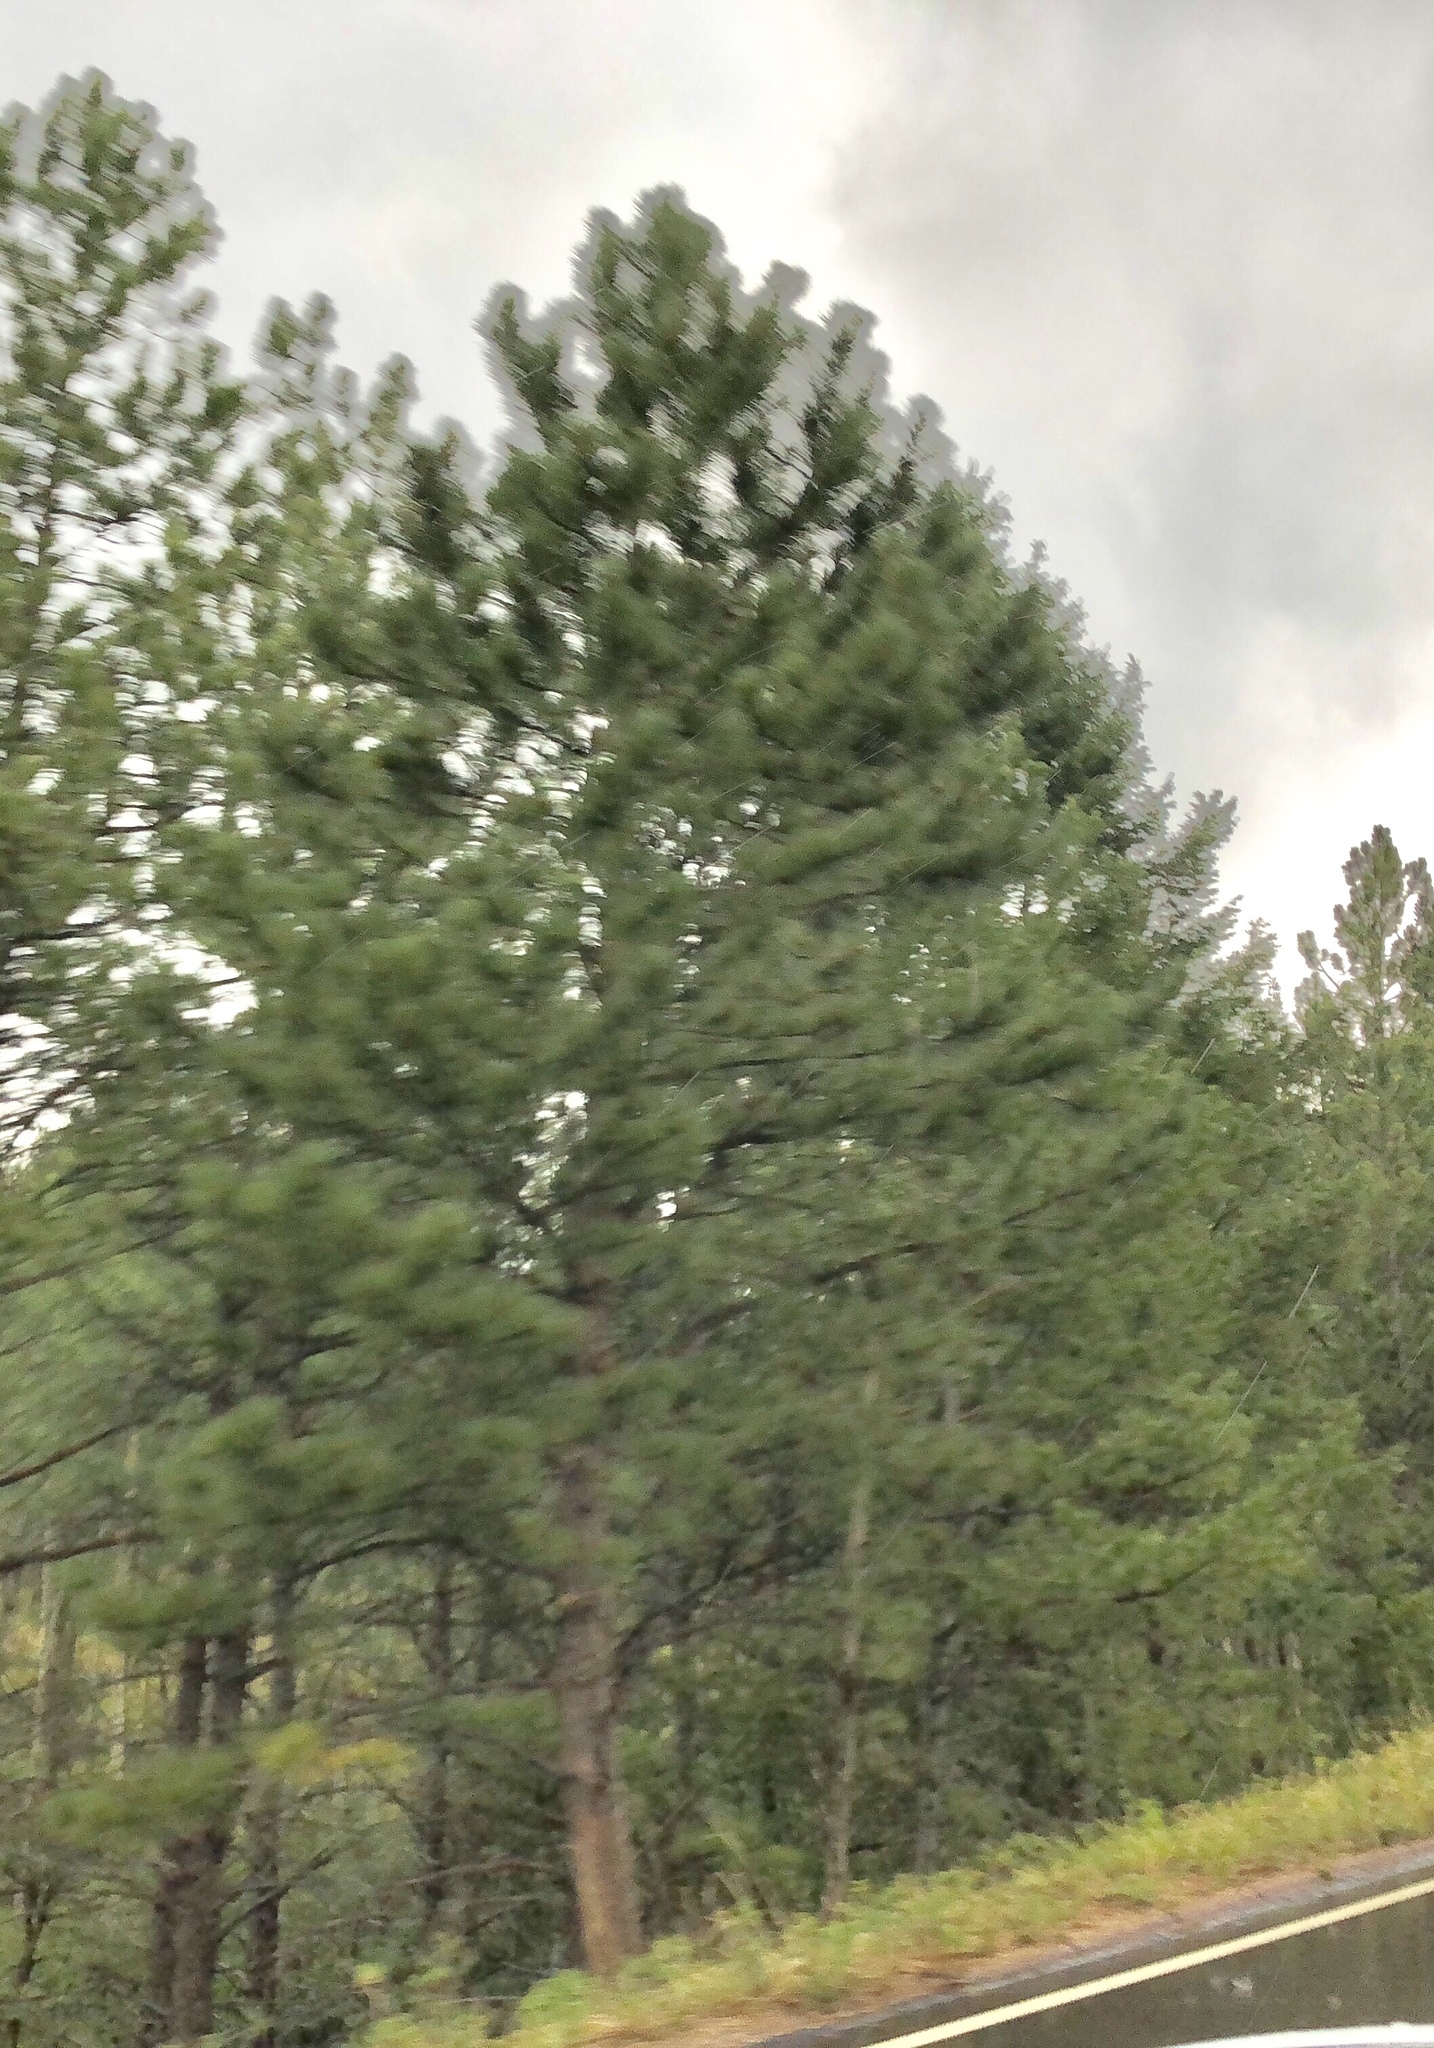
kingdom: Plantae
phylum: Tracheophyta
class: Pinopsida
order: Pinales
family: Pinaceae
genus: Pinus
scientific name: Pinus ponderosa
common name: Western yellow-pine
